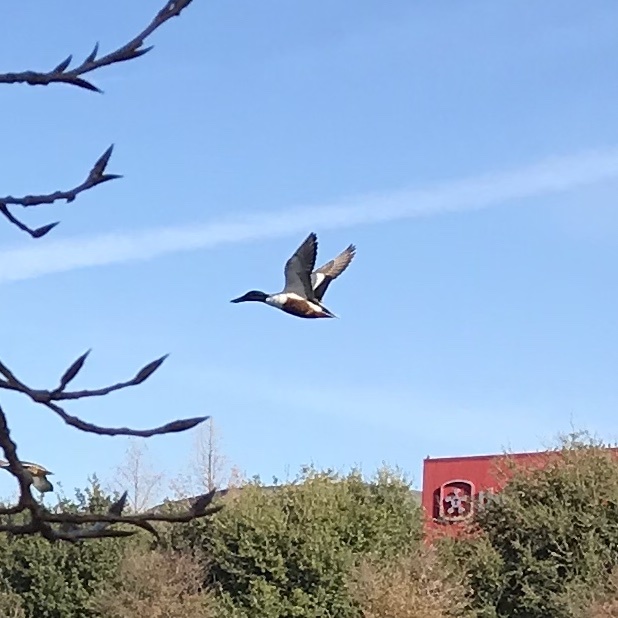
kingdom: Animalia
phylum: Chordata
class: Aves
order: Anseriformes
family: Anatidae
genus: Spatula
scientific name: Spatula clypeata
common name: Northern shoveler
